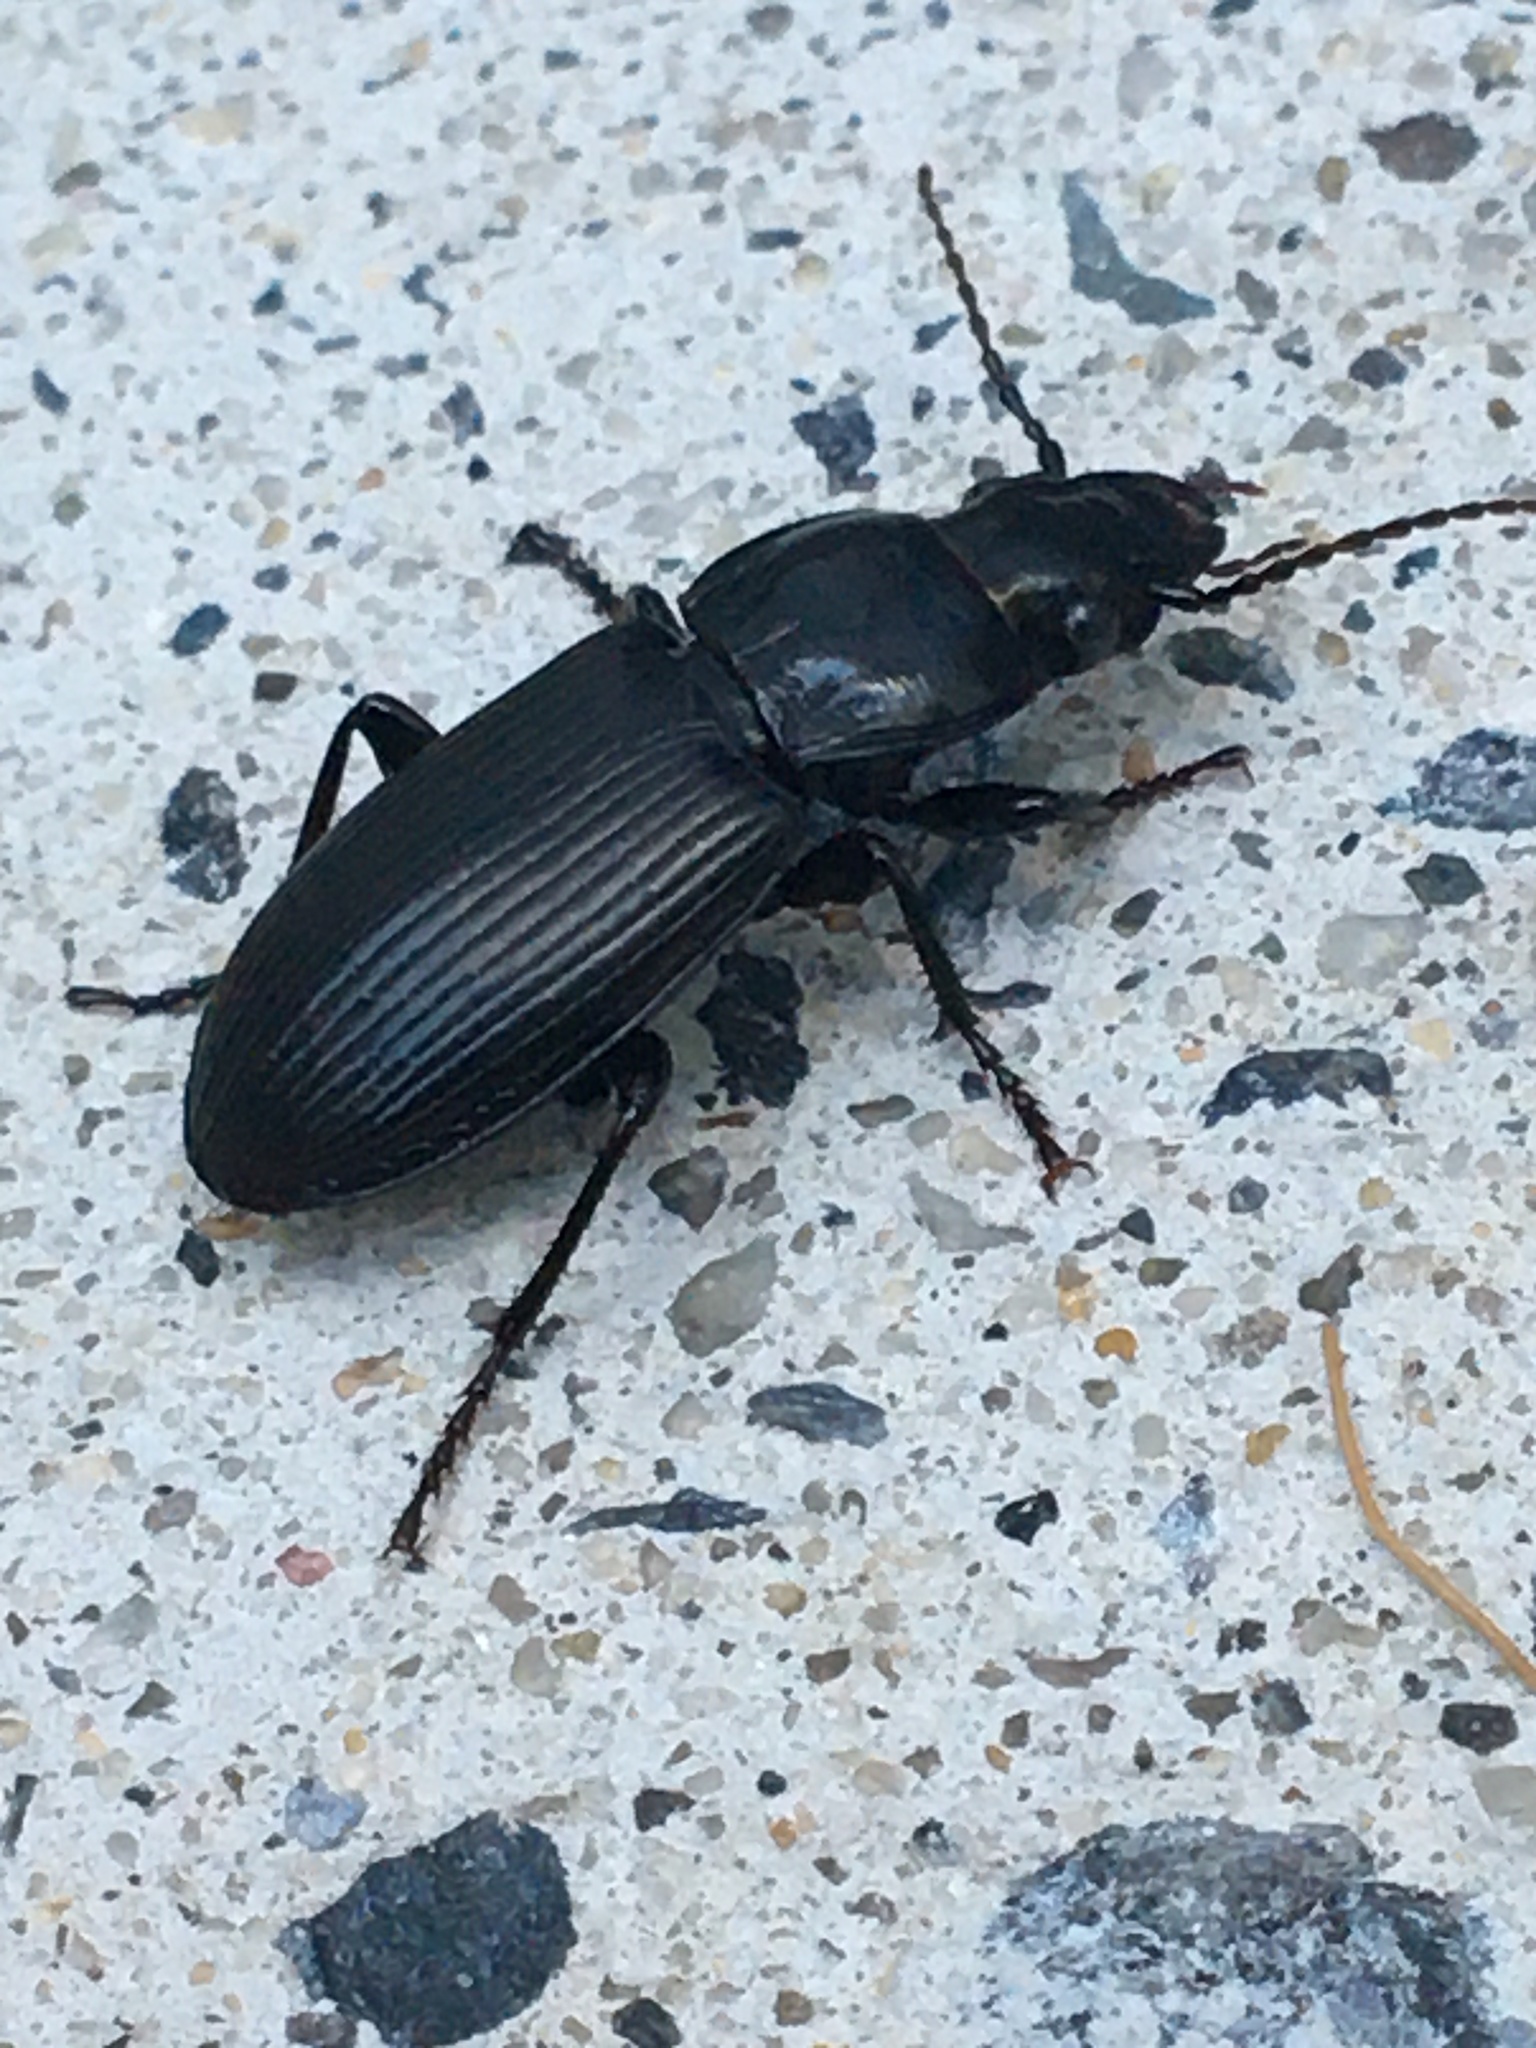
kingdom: Animalia
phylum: Arthropoda
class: Insecta
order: Coleoptera
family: Carabidae
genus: Pterostichus
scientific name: Pterostichus melanarius
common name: European dark harp ground beetle
